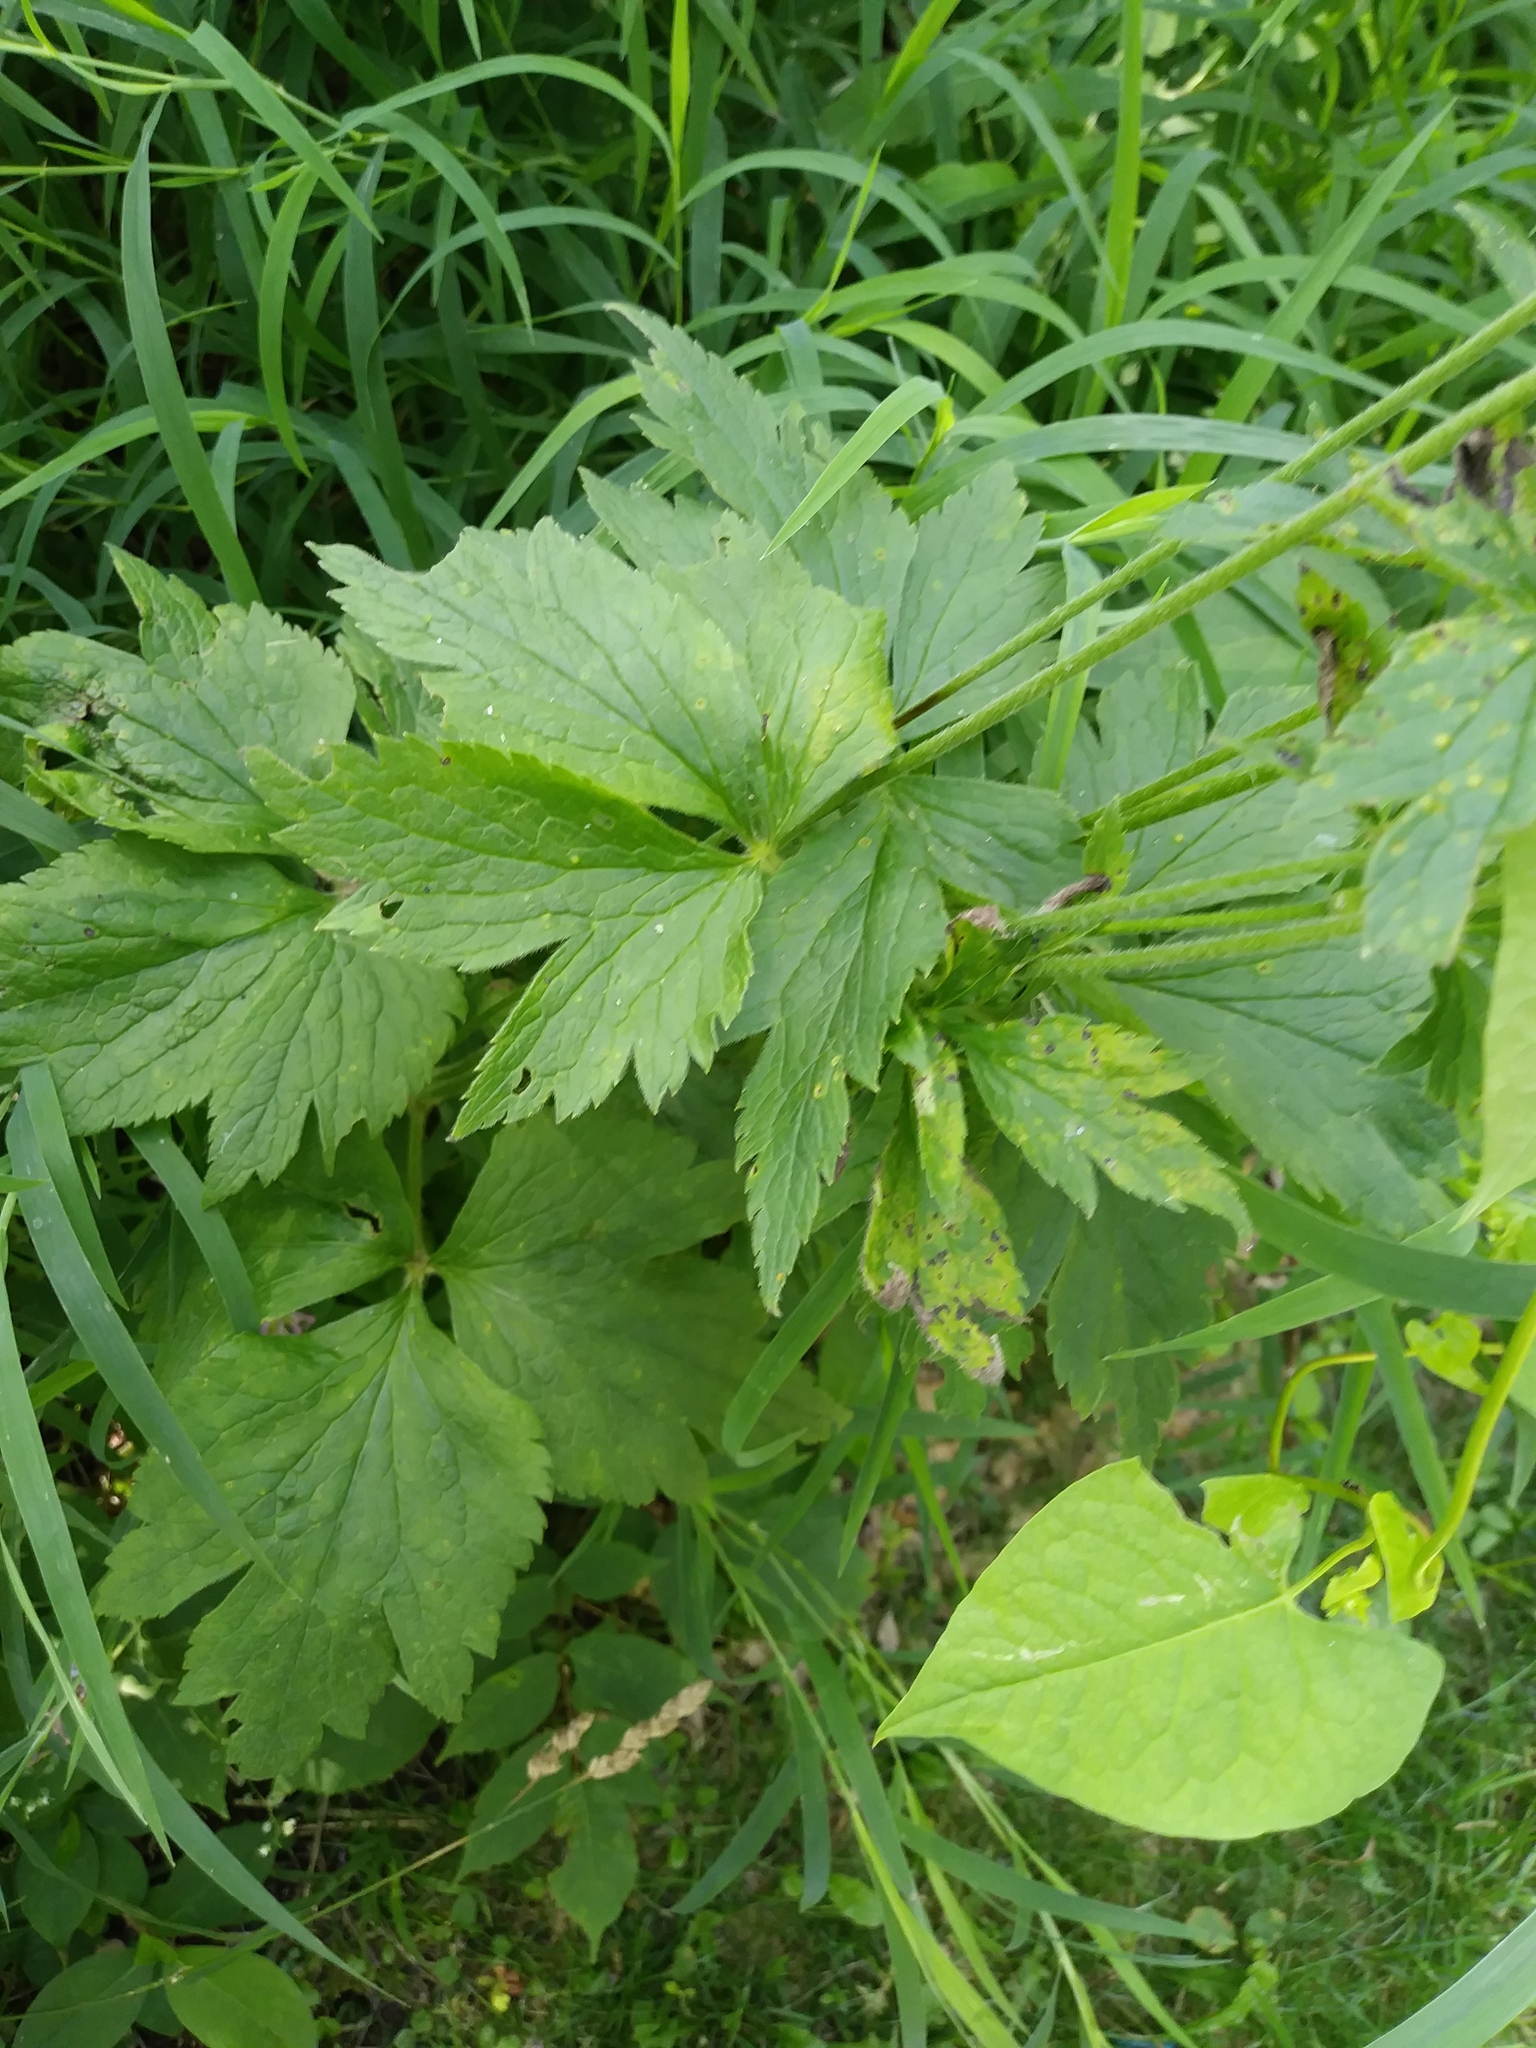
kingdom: Plantae
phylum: Tracheophyta
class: Magnoliopsida
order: Ranunculales
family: Ranunculaceae
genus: Anemone
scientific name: Anemone virginiana
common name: Tall anemone
